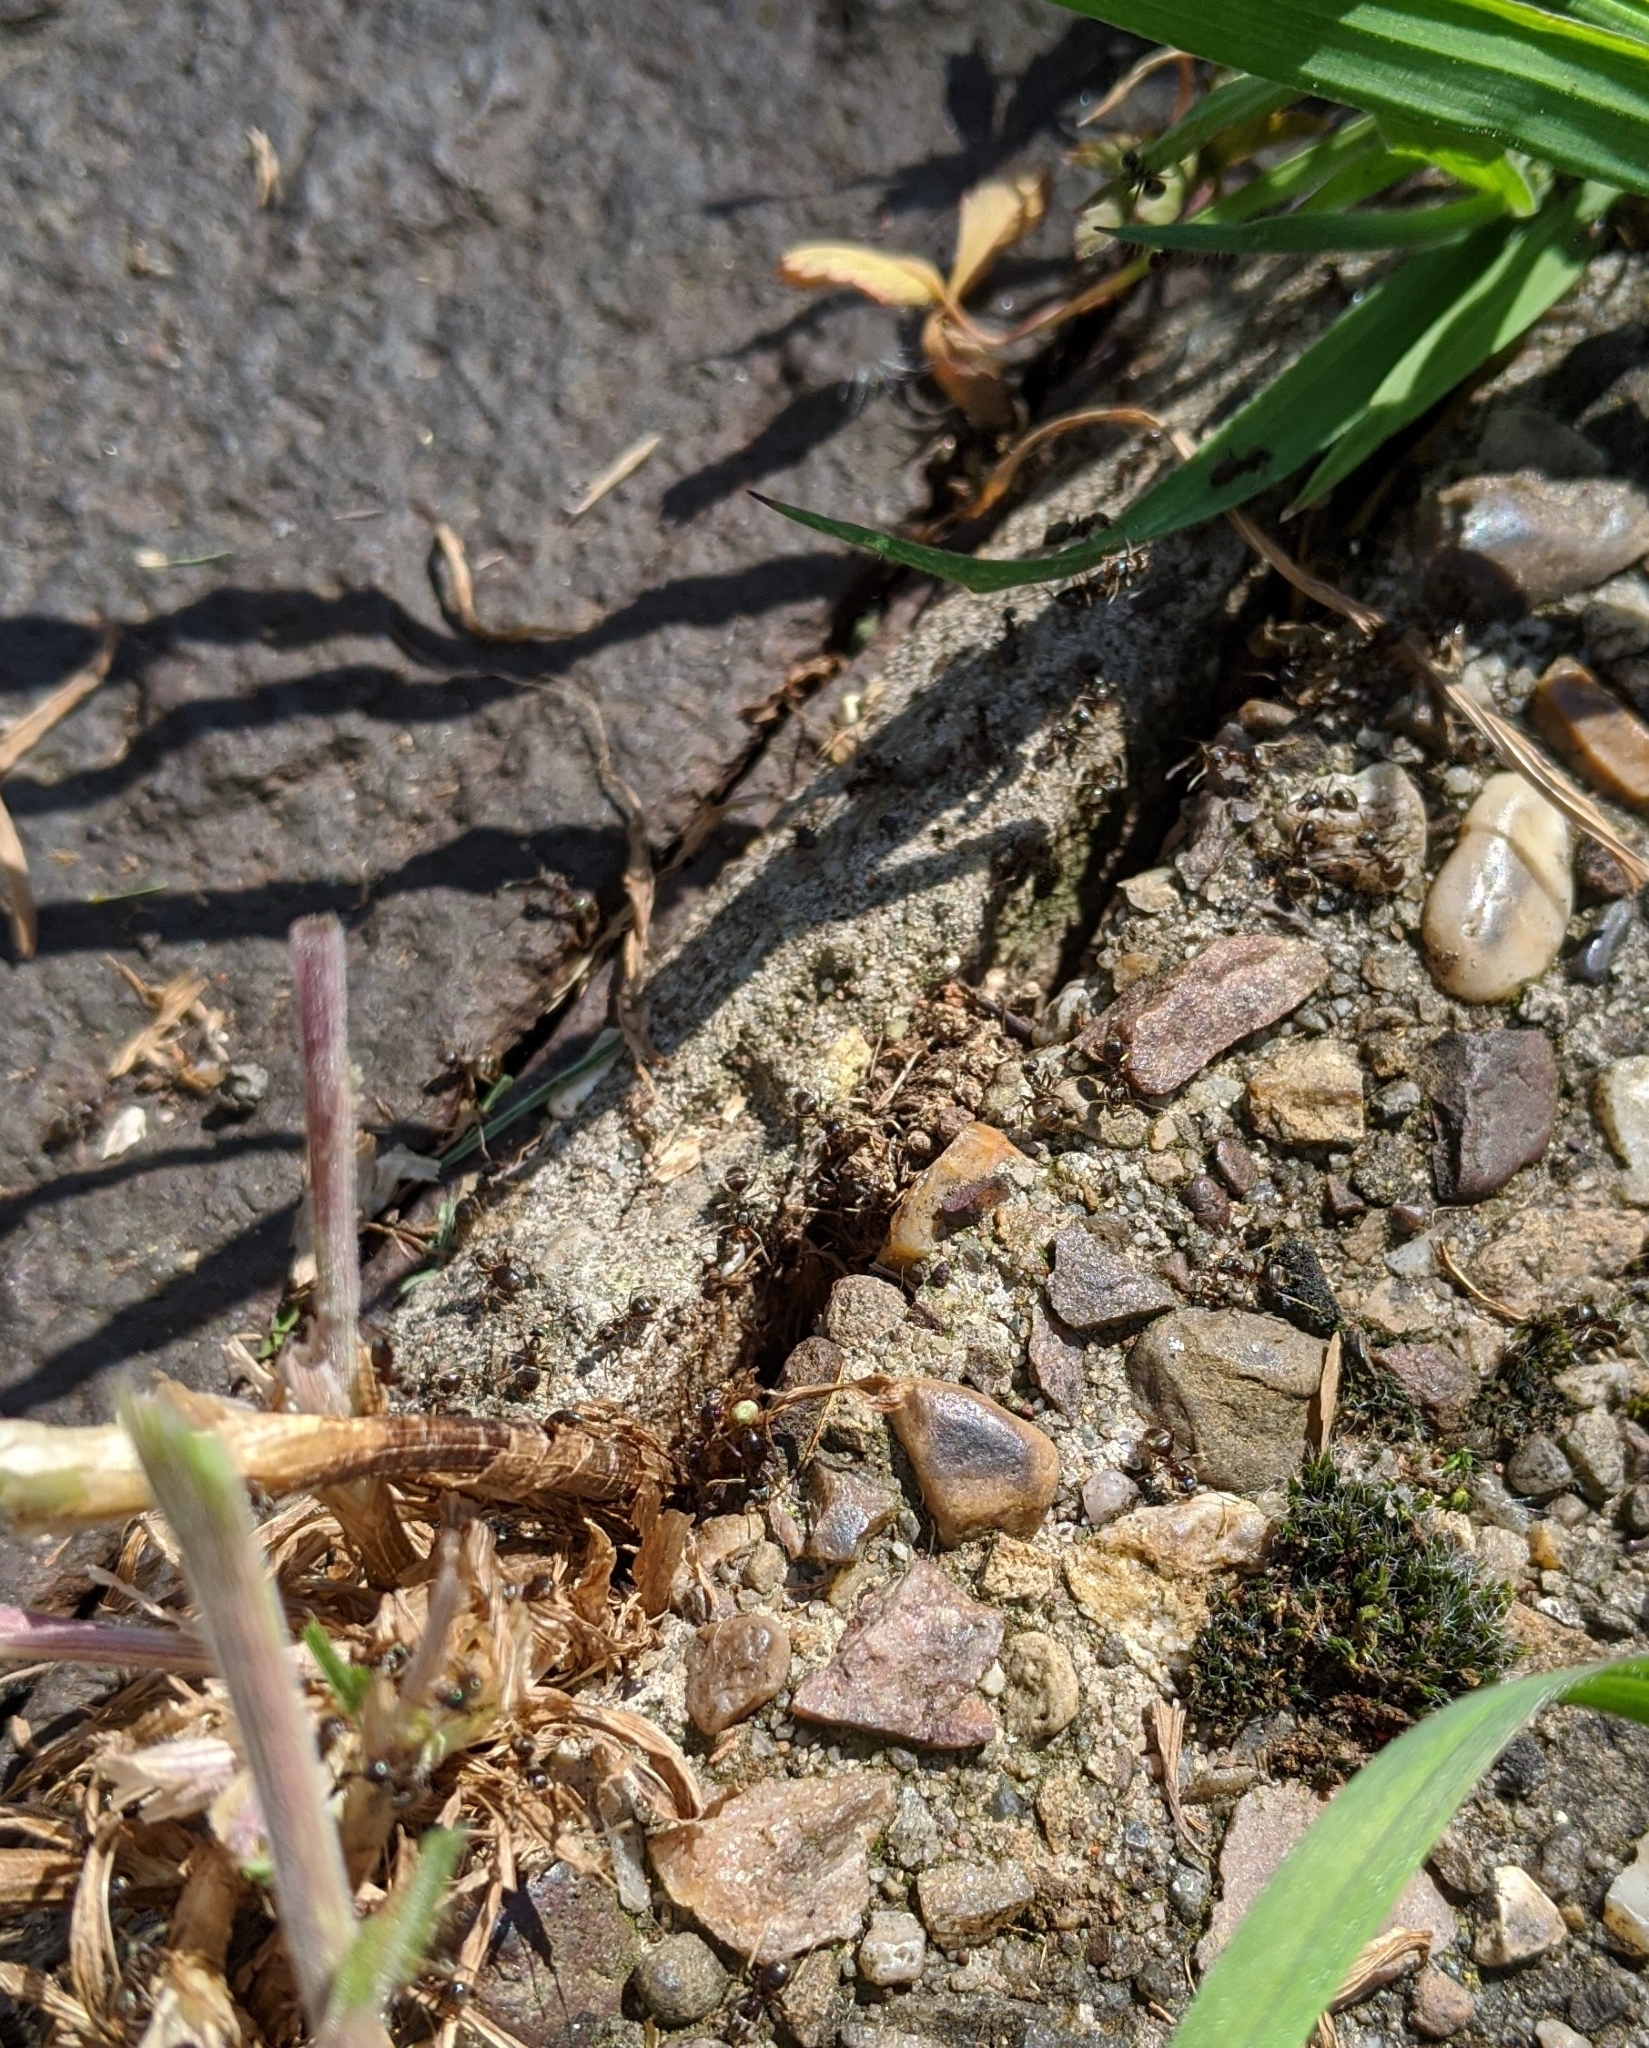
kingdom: Animalia
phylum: Arthropoda
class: Insecta
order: Hymenoptera
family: Formicidae
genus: Lasius
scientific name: Lasius niger
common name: Small black ant
